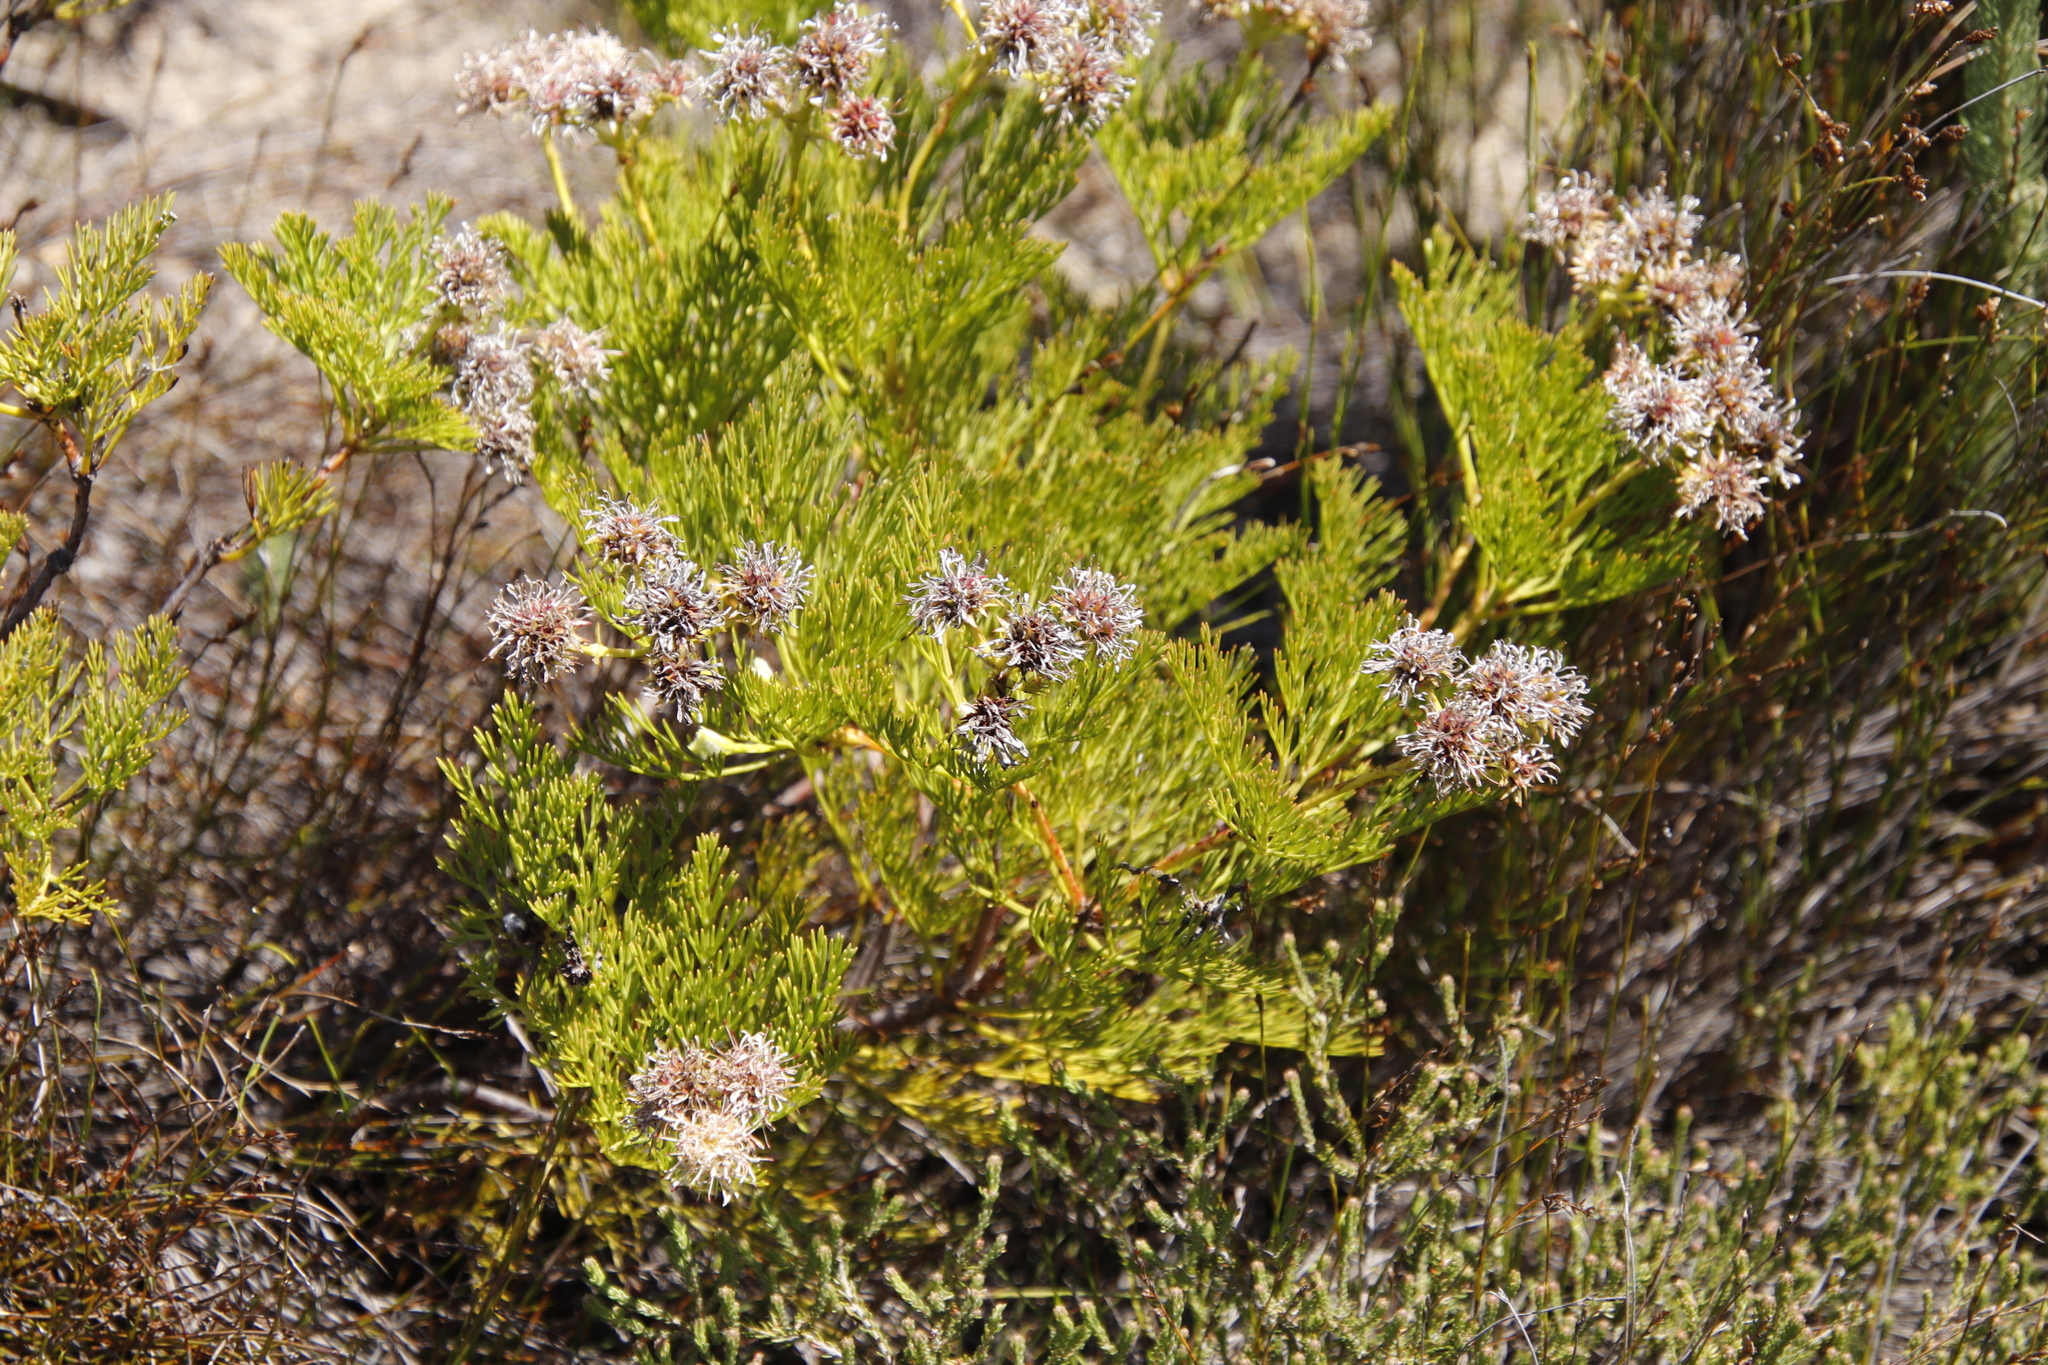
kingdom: Plantae
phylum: Tracheophyta
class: Magnoliopsida
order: Proteales
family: Proteaceae
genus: Serruria
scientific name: Serruria elongata
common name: Long-stalk spiderhead
